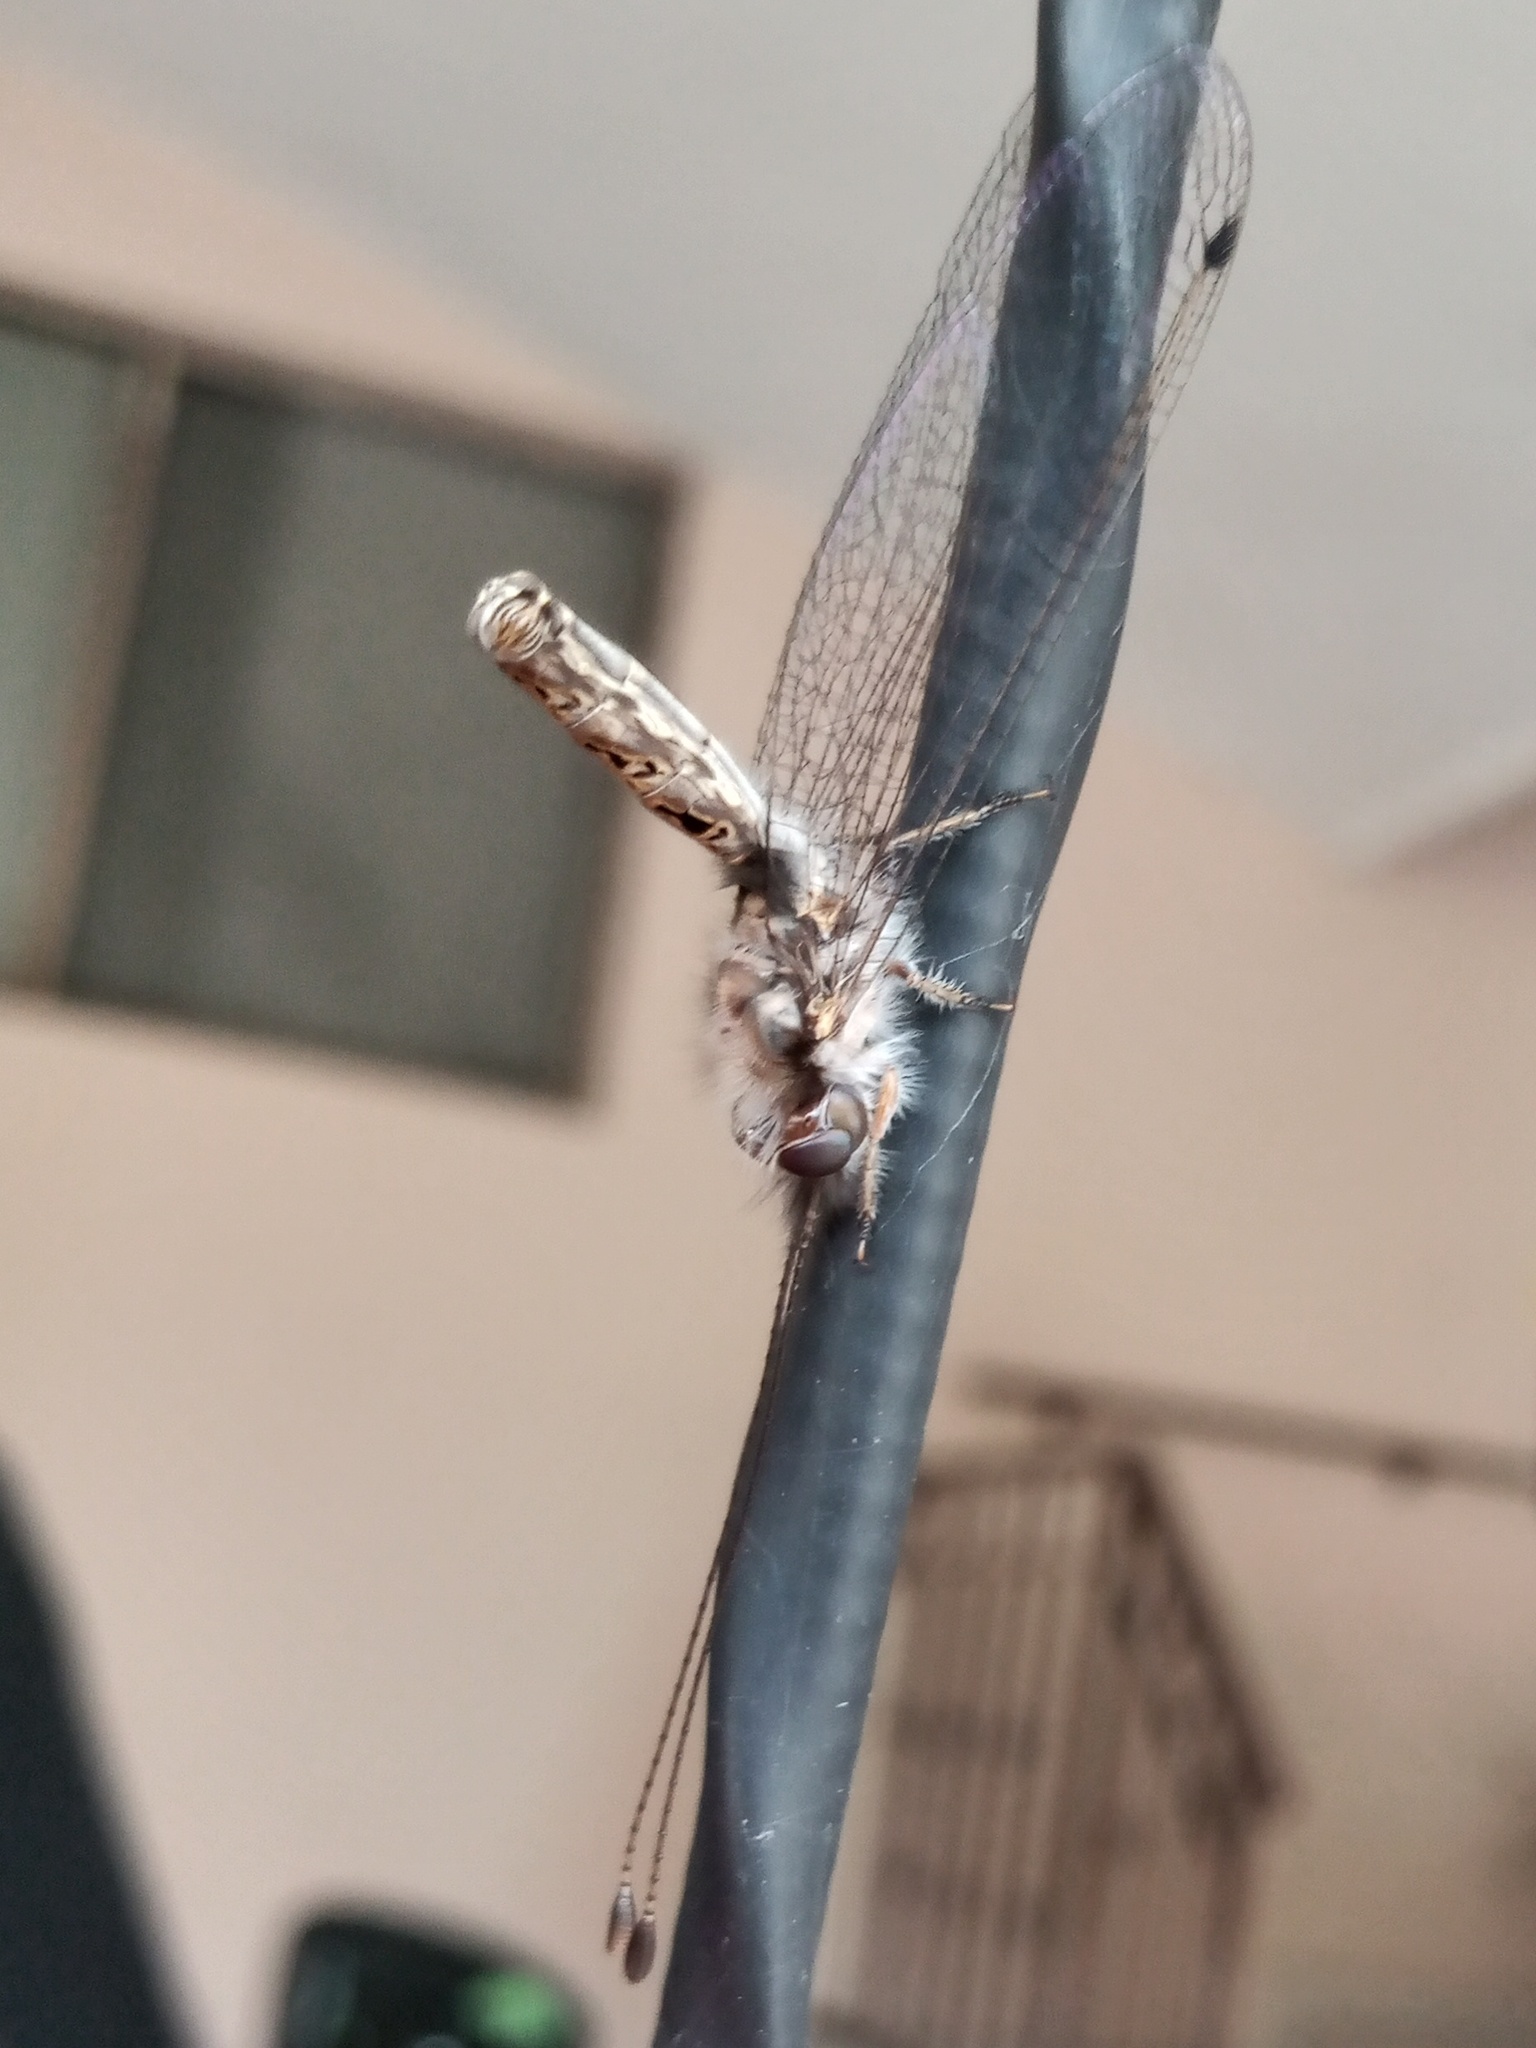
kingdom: Animalia
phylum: Arthropoda
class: Insecta
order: Neuroptera
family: Ascalaphidae
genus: Ululodes
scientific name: Ululodes macleayanus
